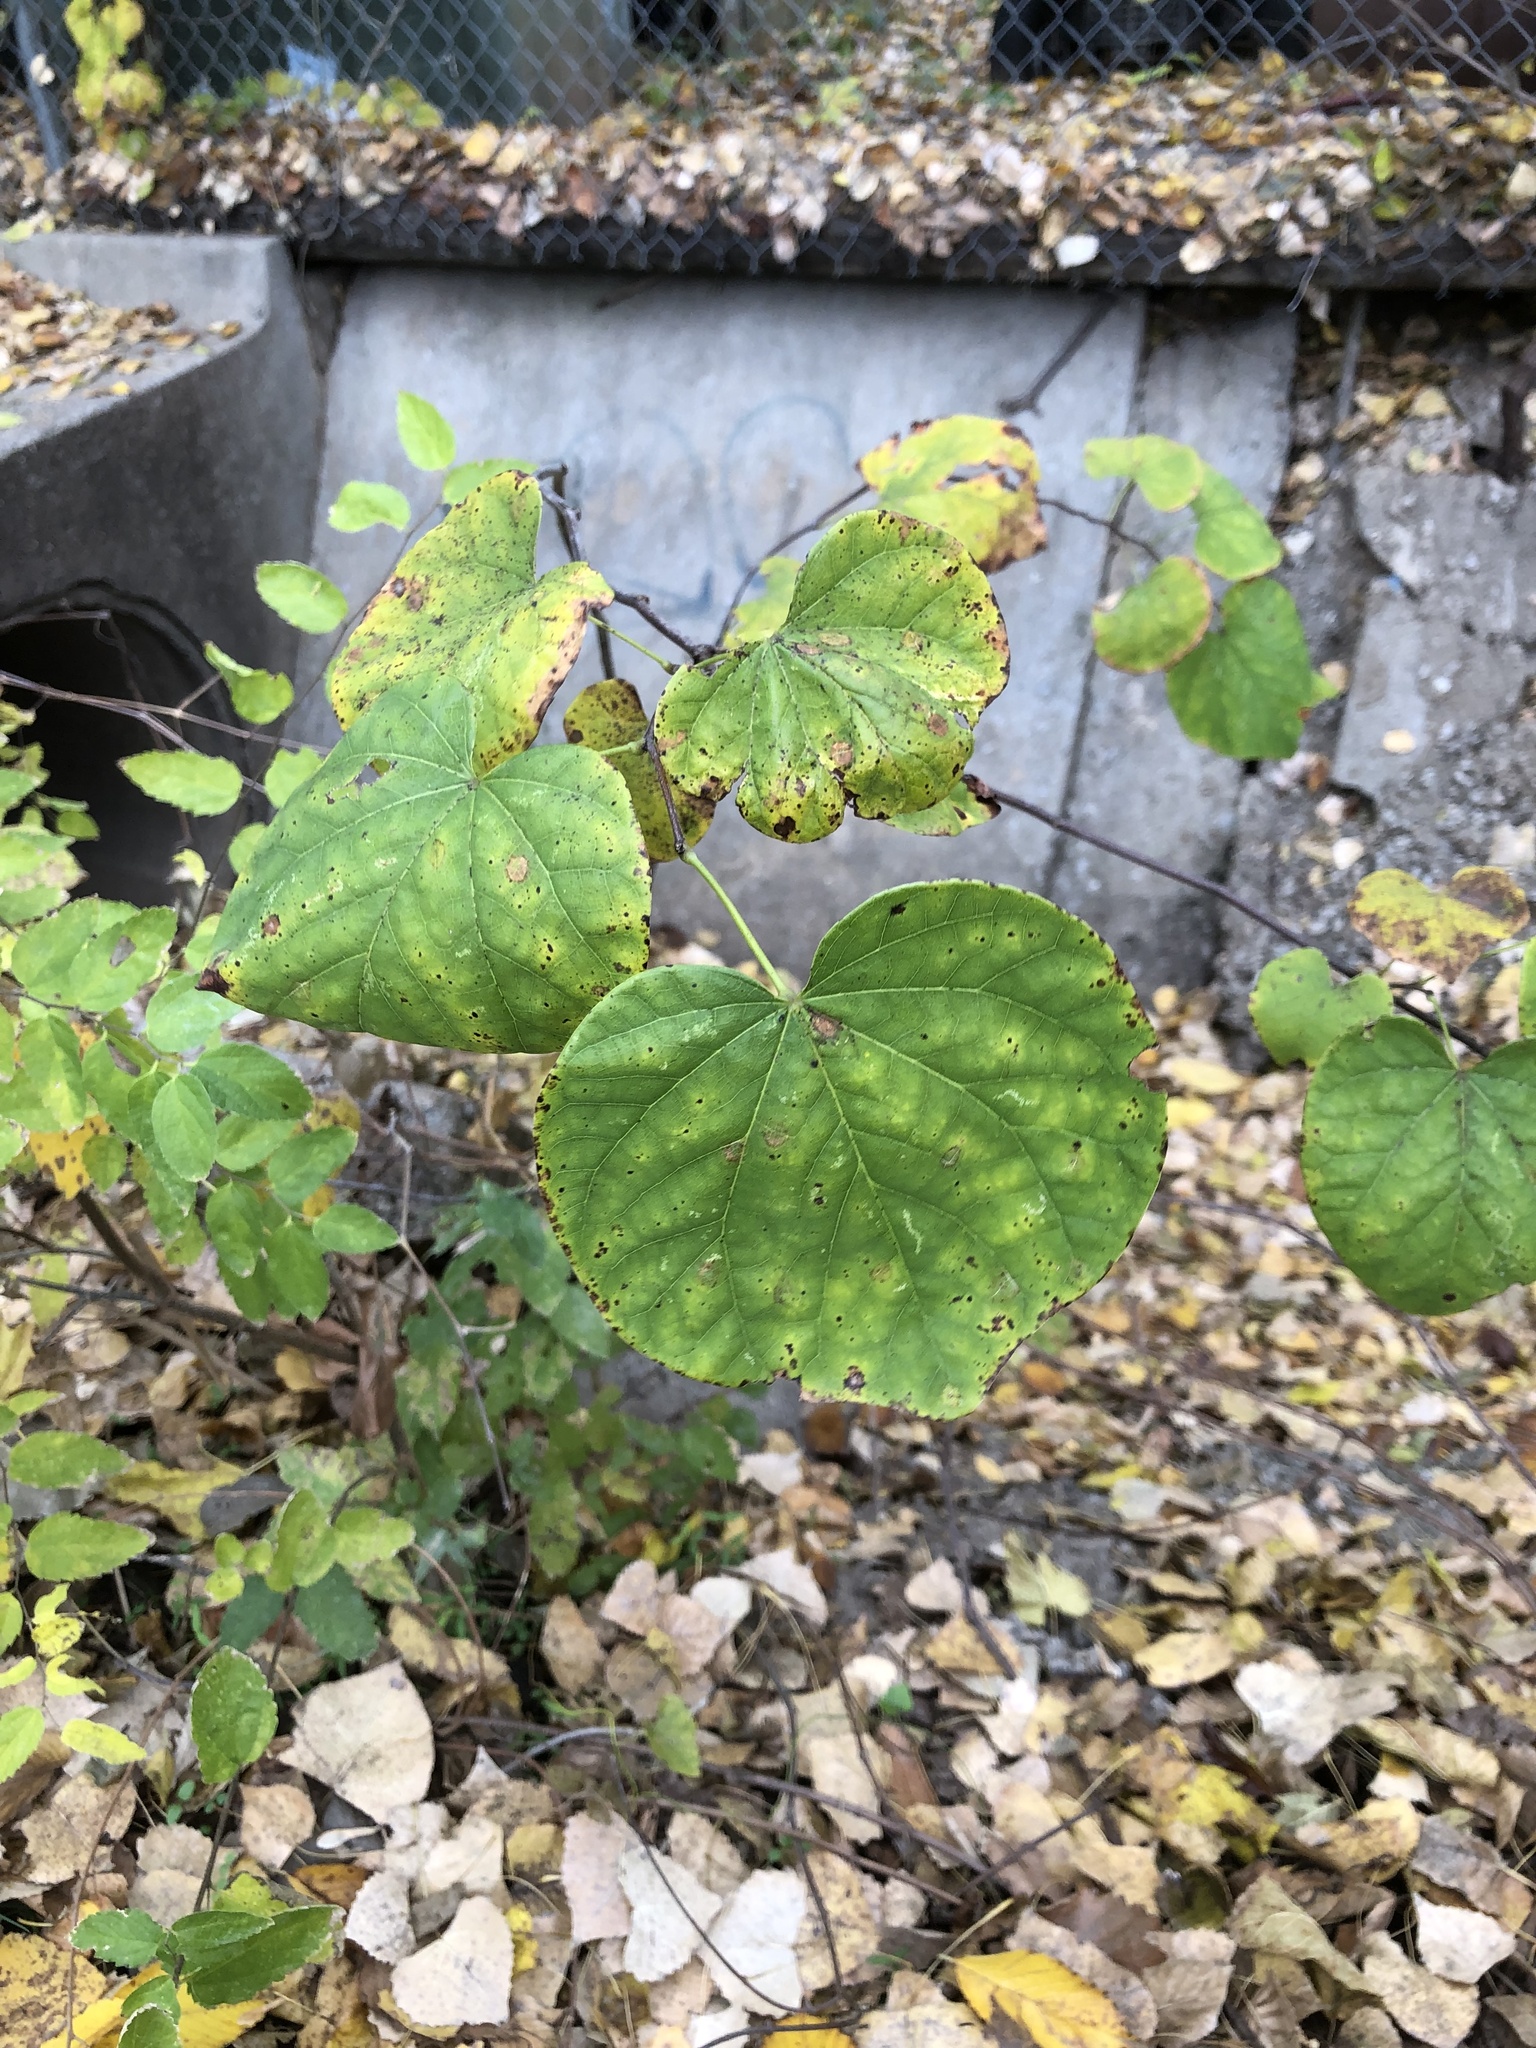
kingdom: Plantae
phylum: Tracheophyta
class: Magnoliopsida
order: Fabales
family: Fabaceae
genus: Cercis
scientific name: Cercis canadensis
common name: Eastern redbud
